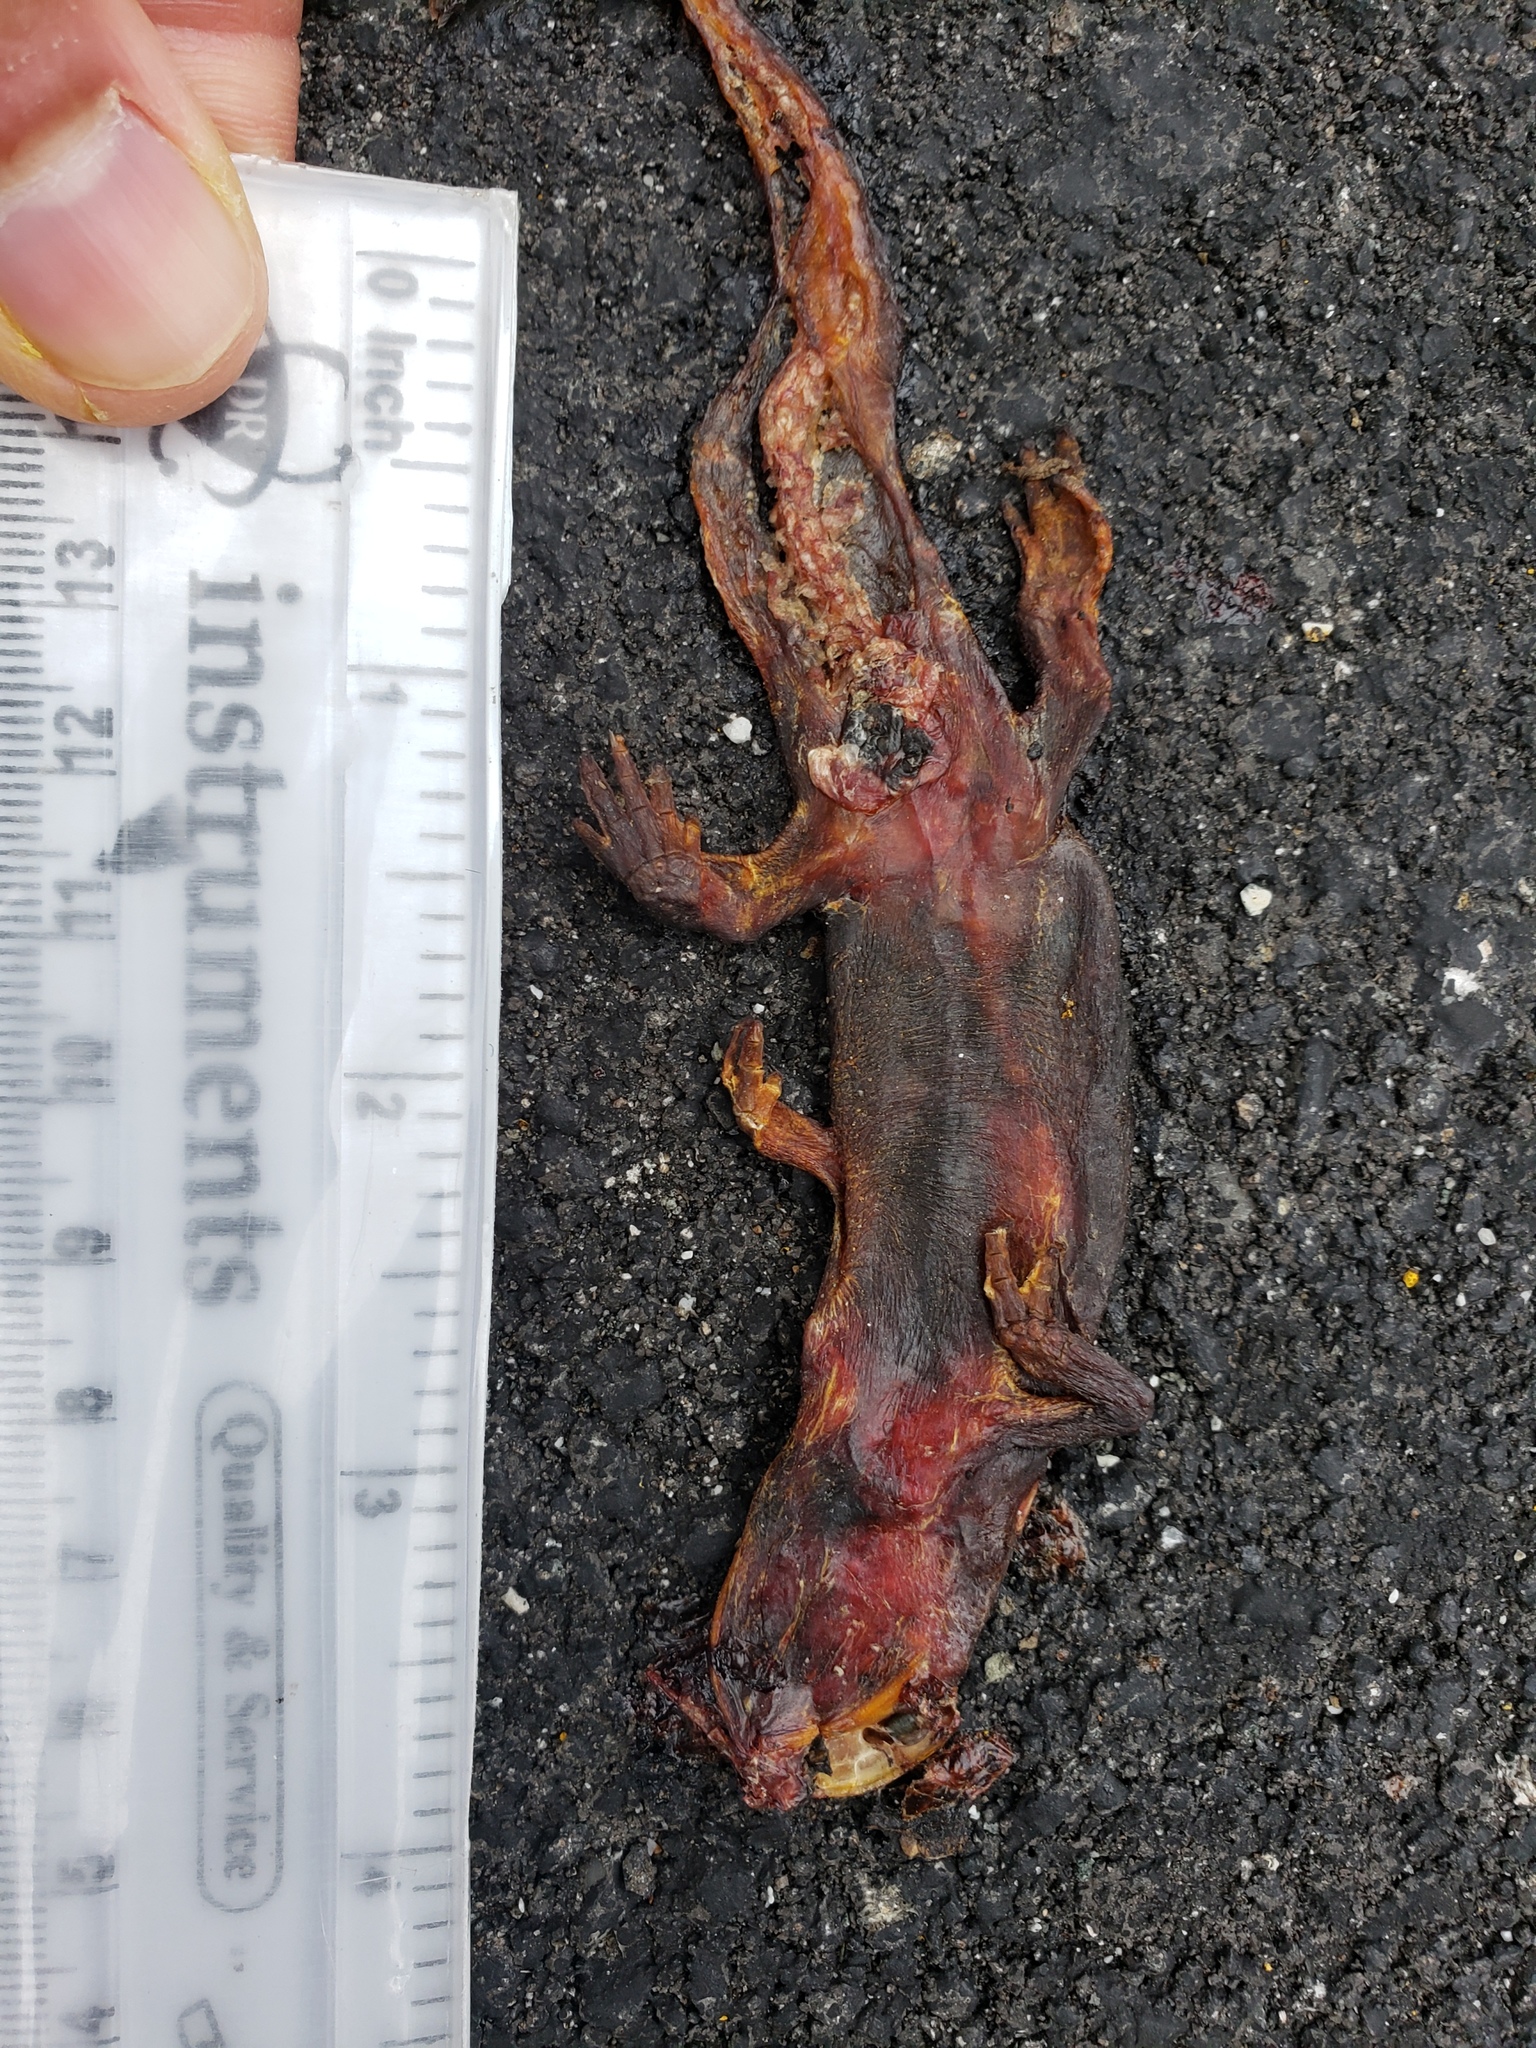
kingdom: Animalia
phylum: Chordata
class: Amphibia
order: Caudata
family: Salamandridae
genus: Taricha
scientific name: Taricha
